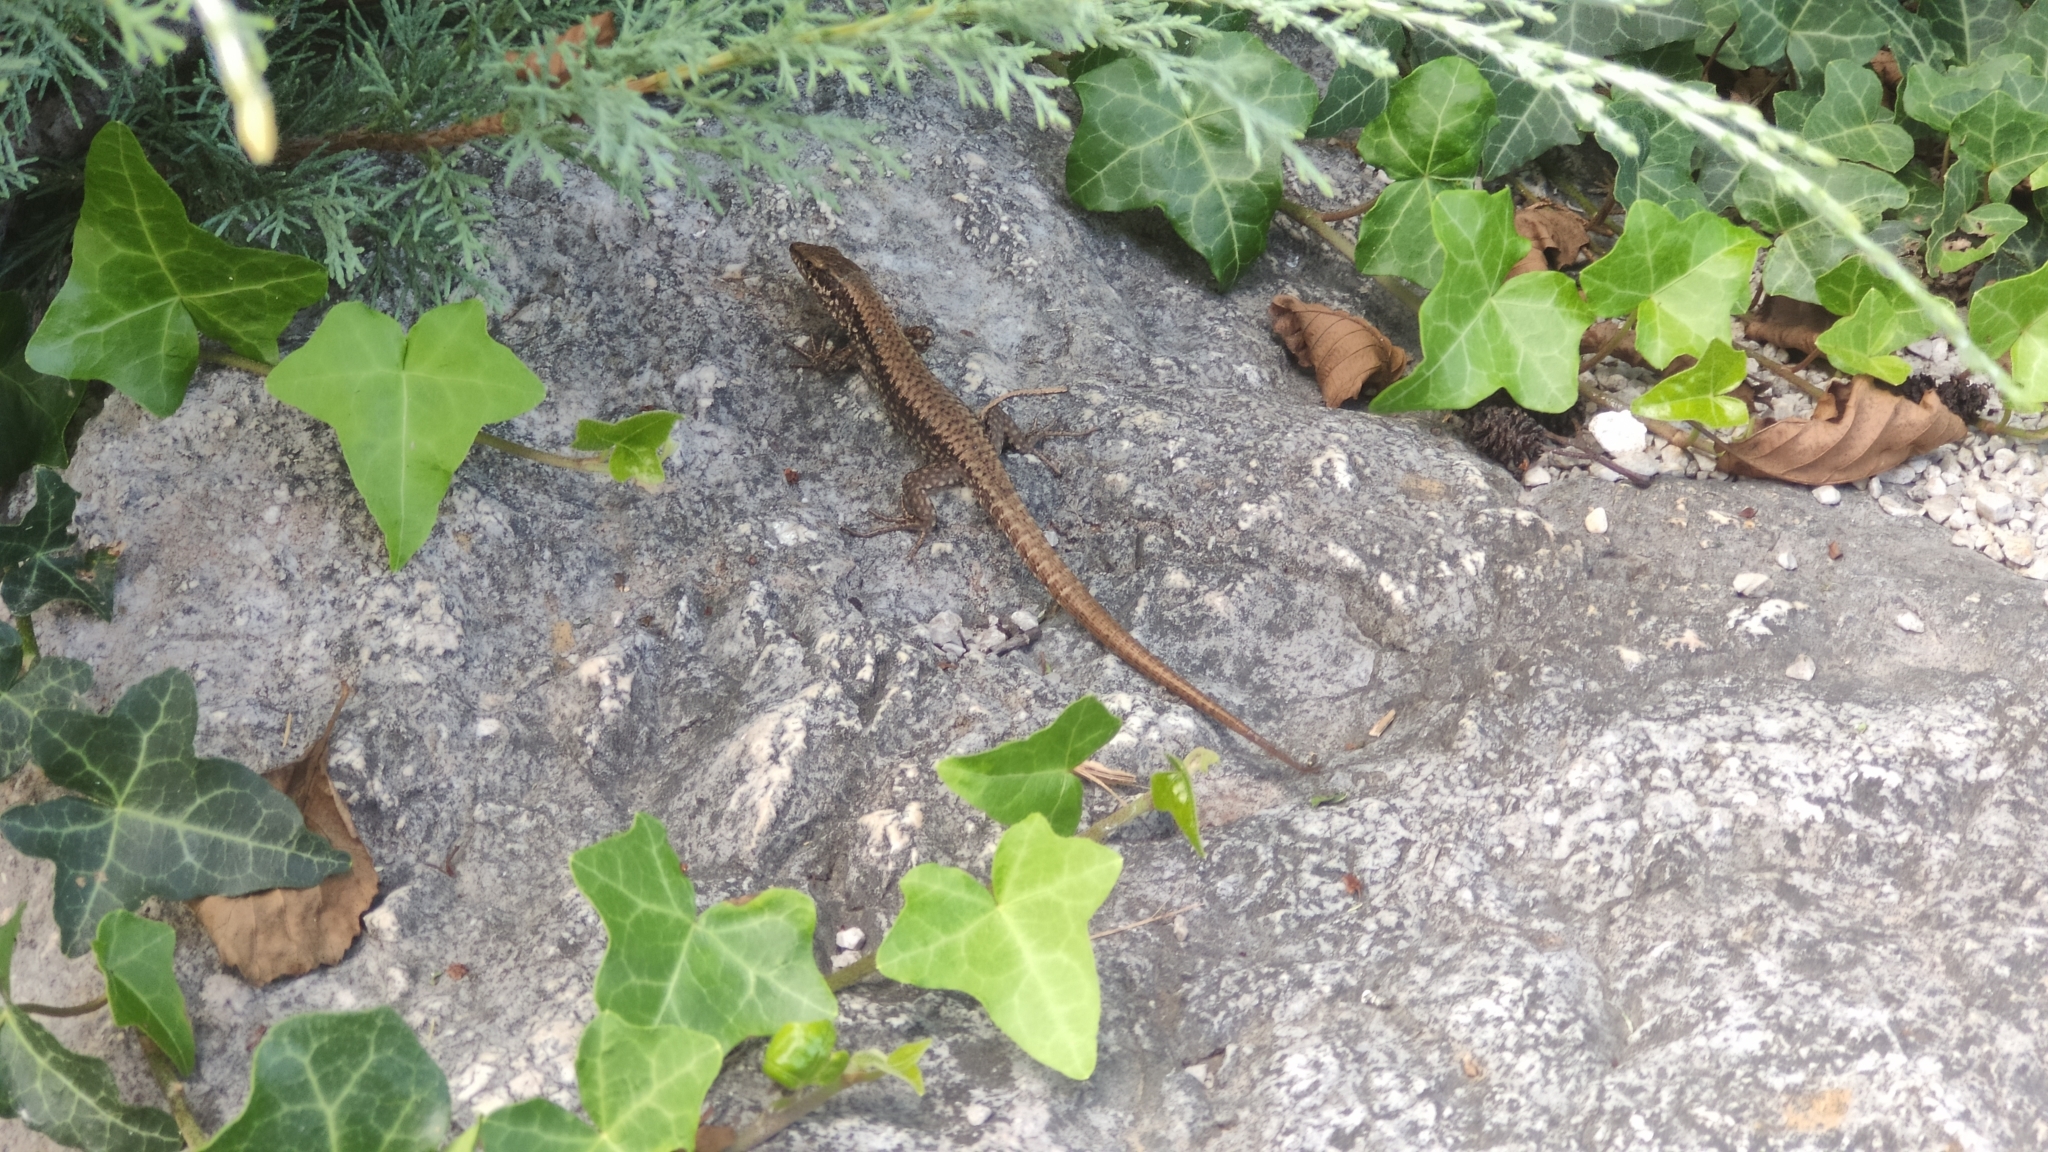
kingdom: Animalia
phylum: Chordata
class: Squamata
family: Lacertidae
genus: Podarcis
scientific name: Podarcis muralis
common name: Common wall lizard
